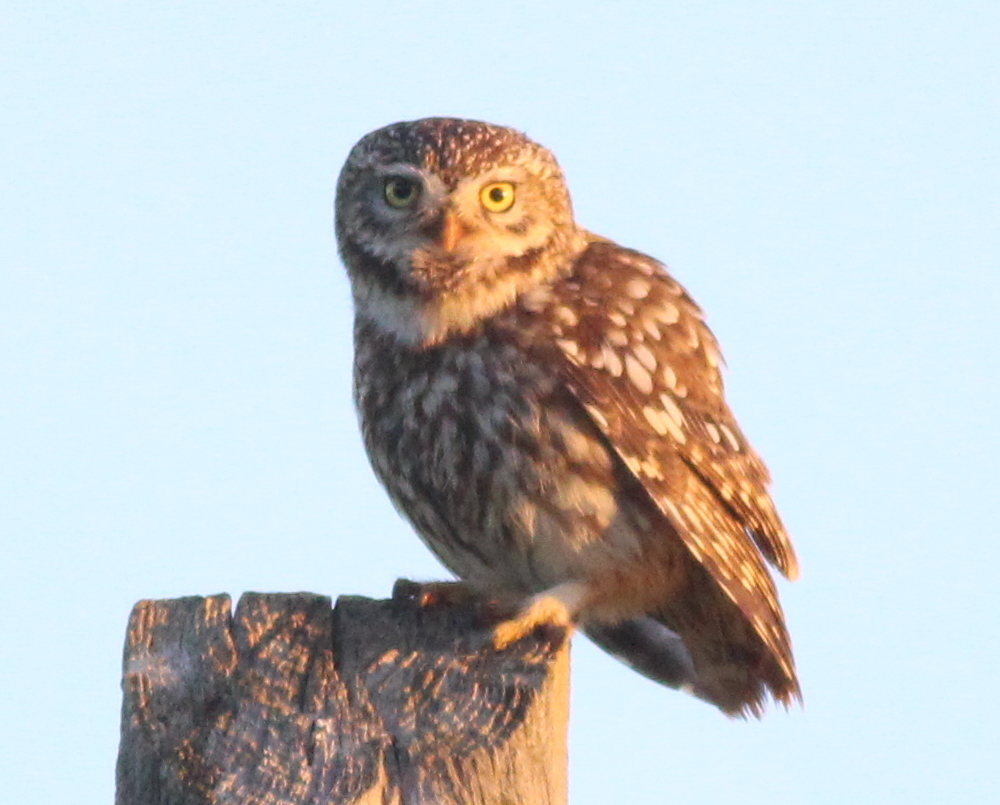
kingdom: Animalia
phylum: Chordata
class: Aves
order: Strigiformes
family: Strigidae
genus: Athene
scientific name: Athene noctua
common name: Little owl
